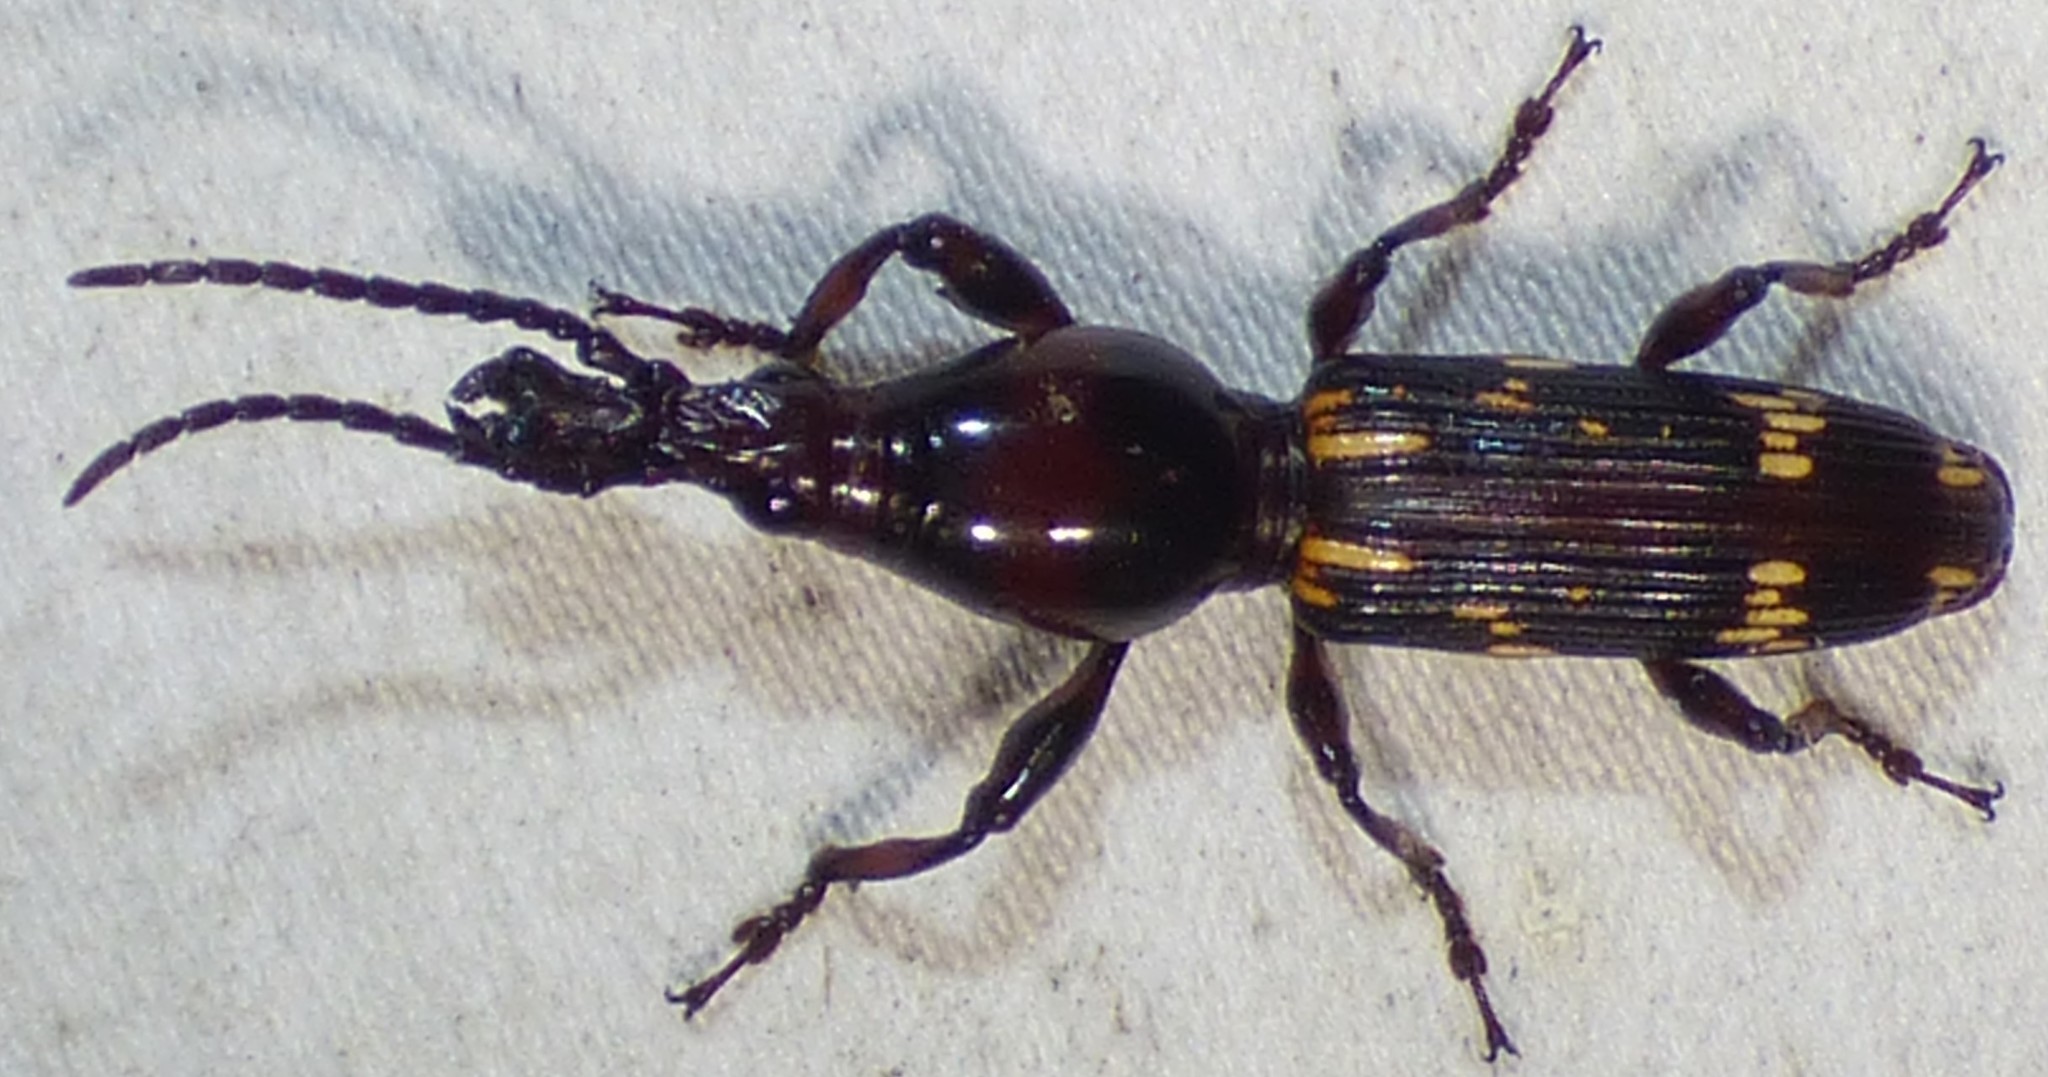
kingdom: Animalia
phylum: Arthropoda
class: Insecta
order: Coleoptera
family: Brentidae
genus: Arrenodes
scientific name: Arrenodes minutus
